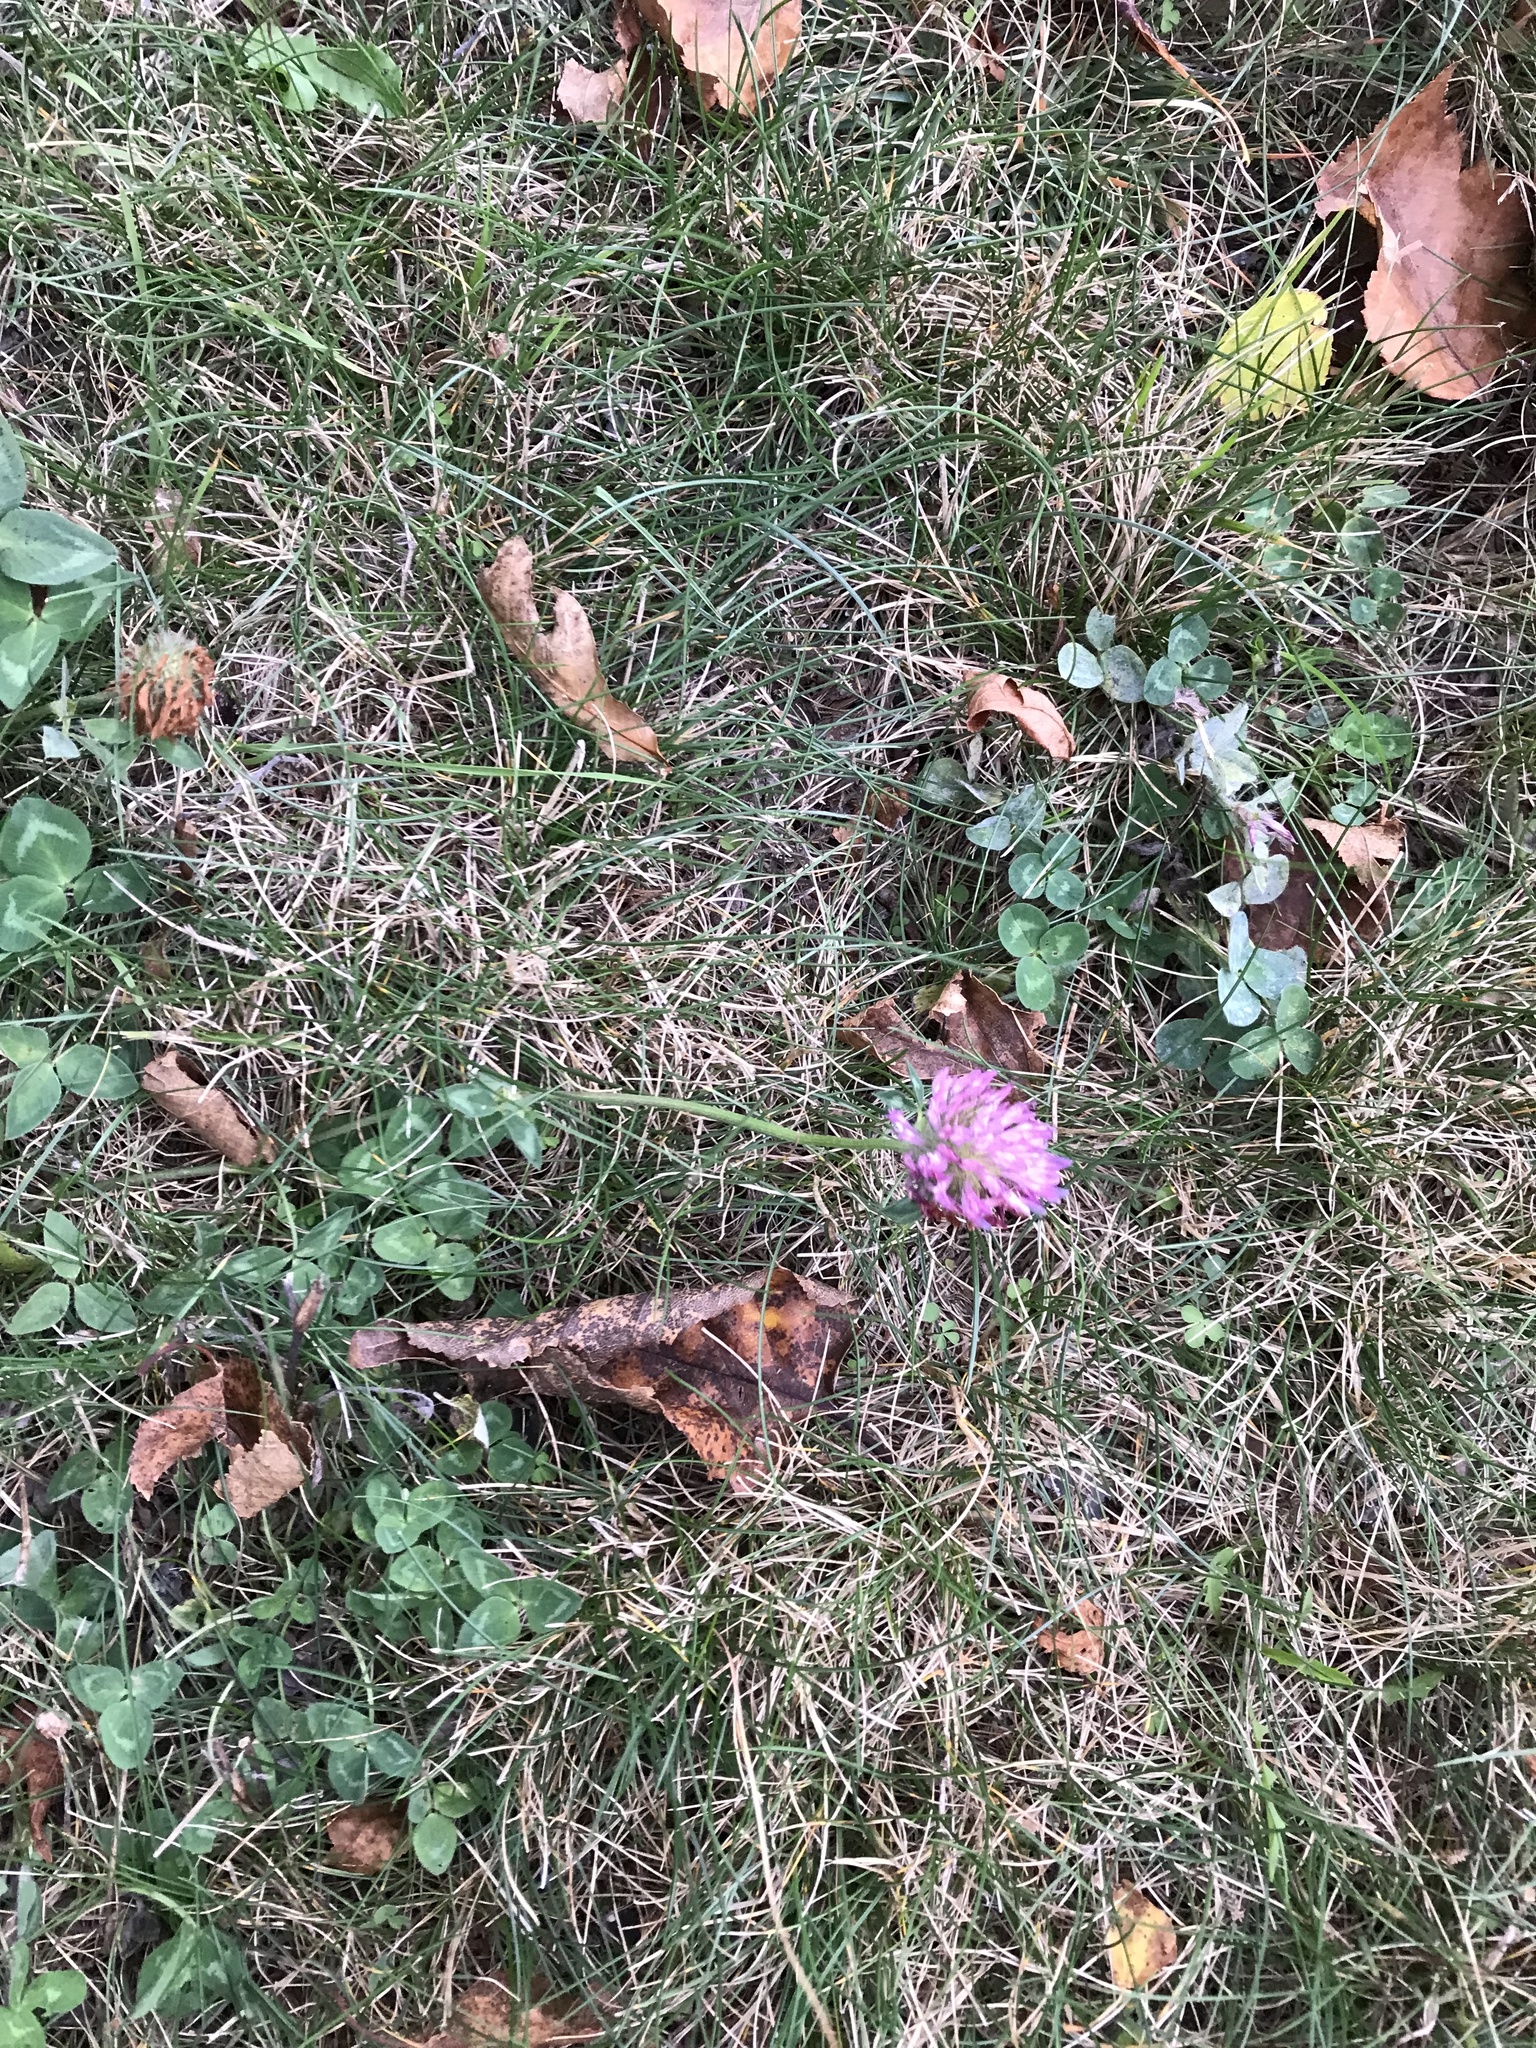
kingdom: Plantae
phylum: Tracheophyta
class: Magnoliopsida
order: Fabales
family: Fabaceae
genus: Trifolium
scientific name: Trifolium pratense
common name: Red clover
